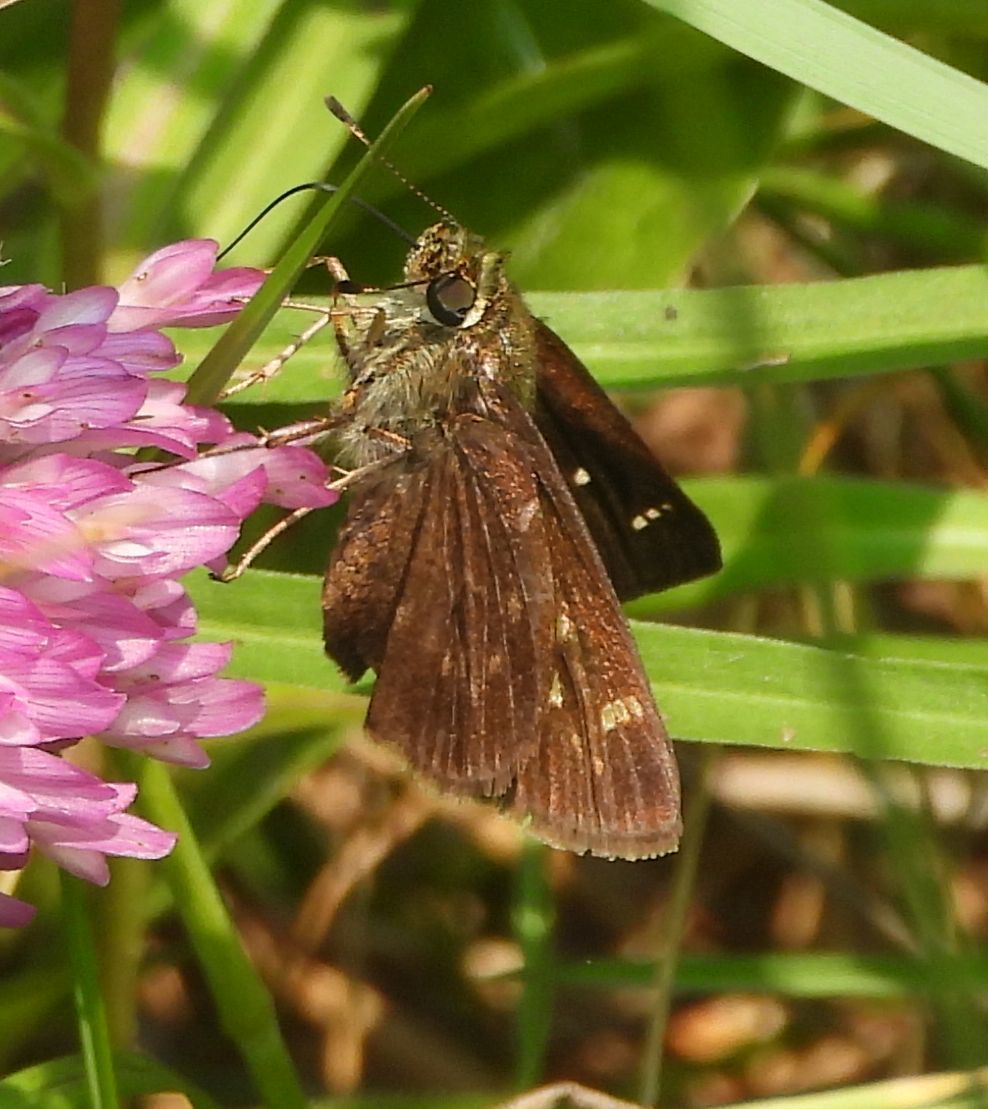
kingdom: Animalia
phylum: Arthropoda
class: Insecta
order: Lepidoptera
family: Hesperiidae
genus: Vernia
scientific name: Vernia verna
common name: Little glassywing
